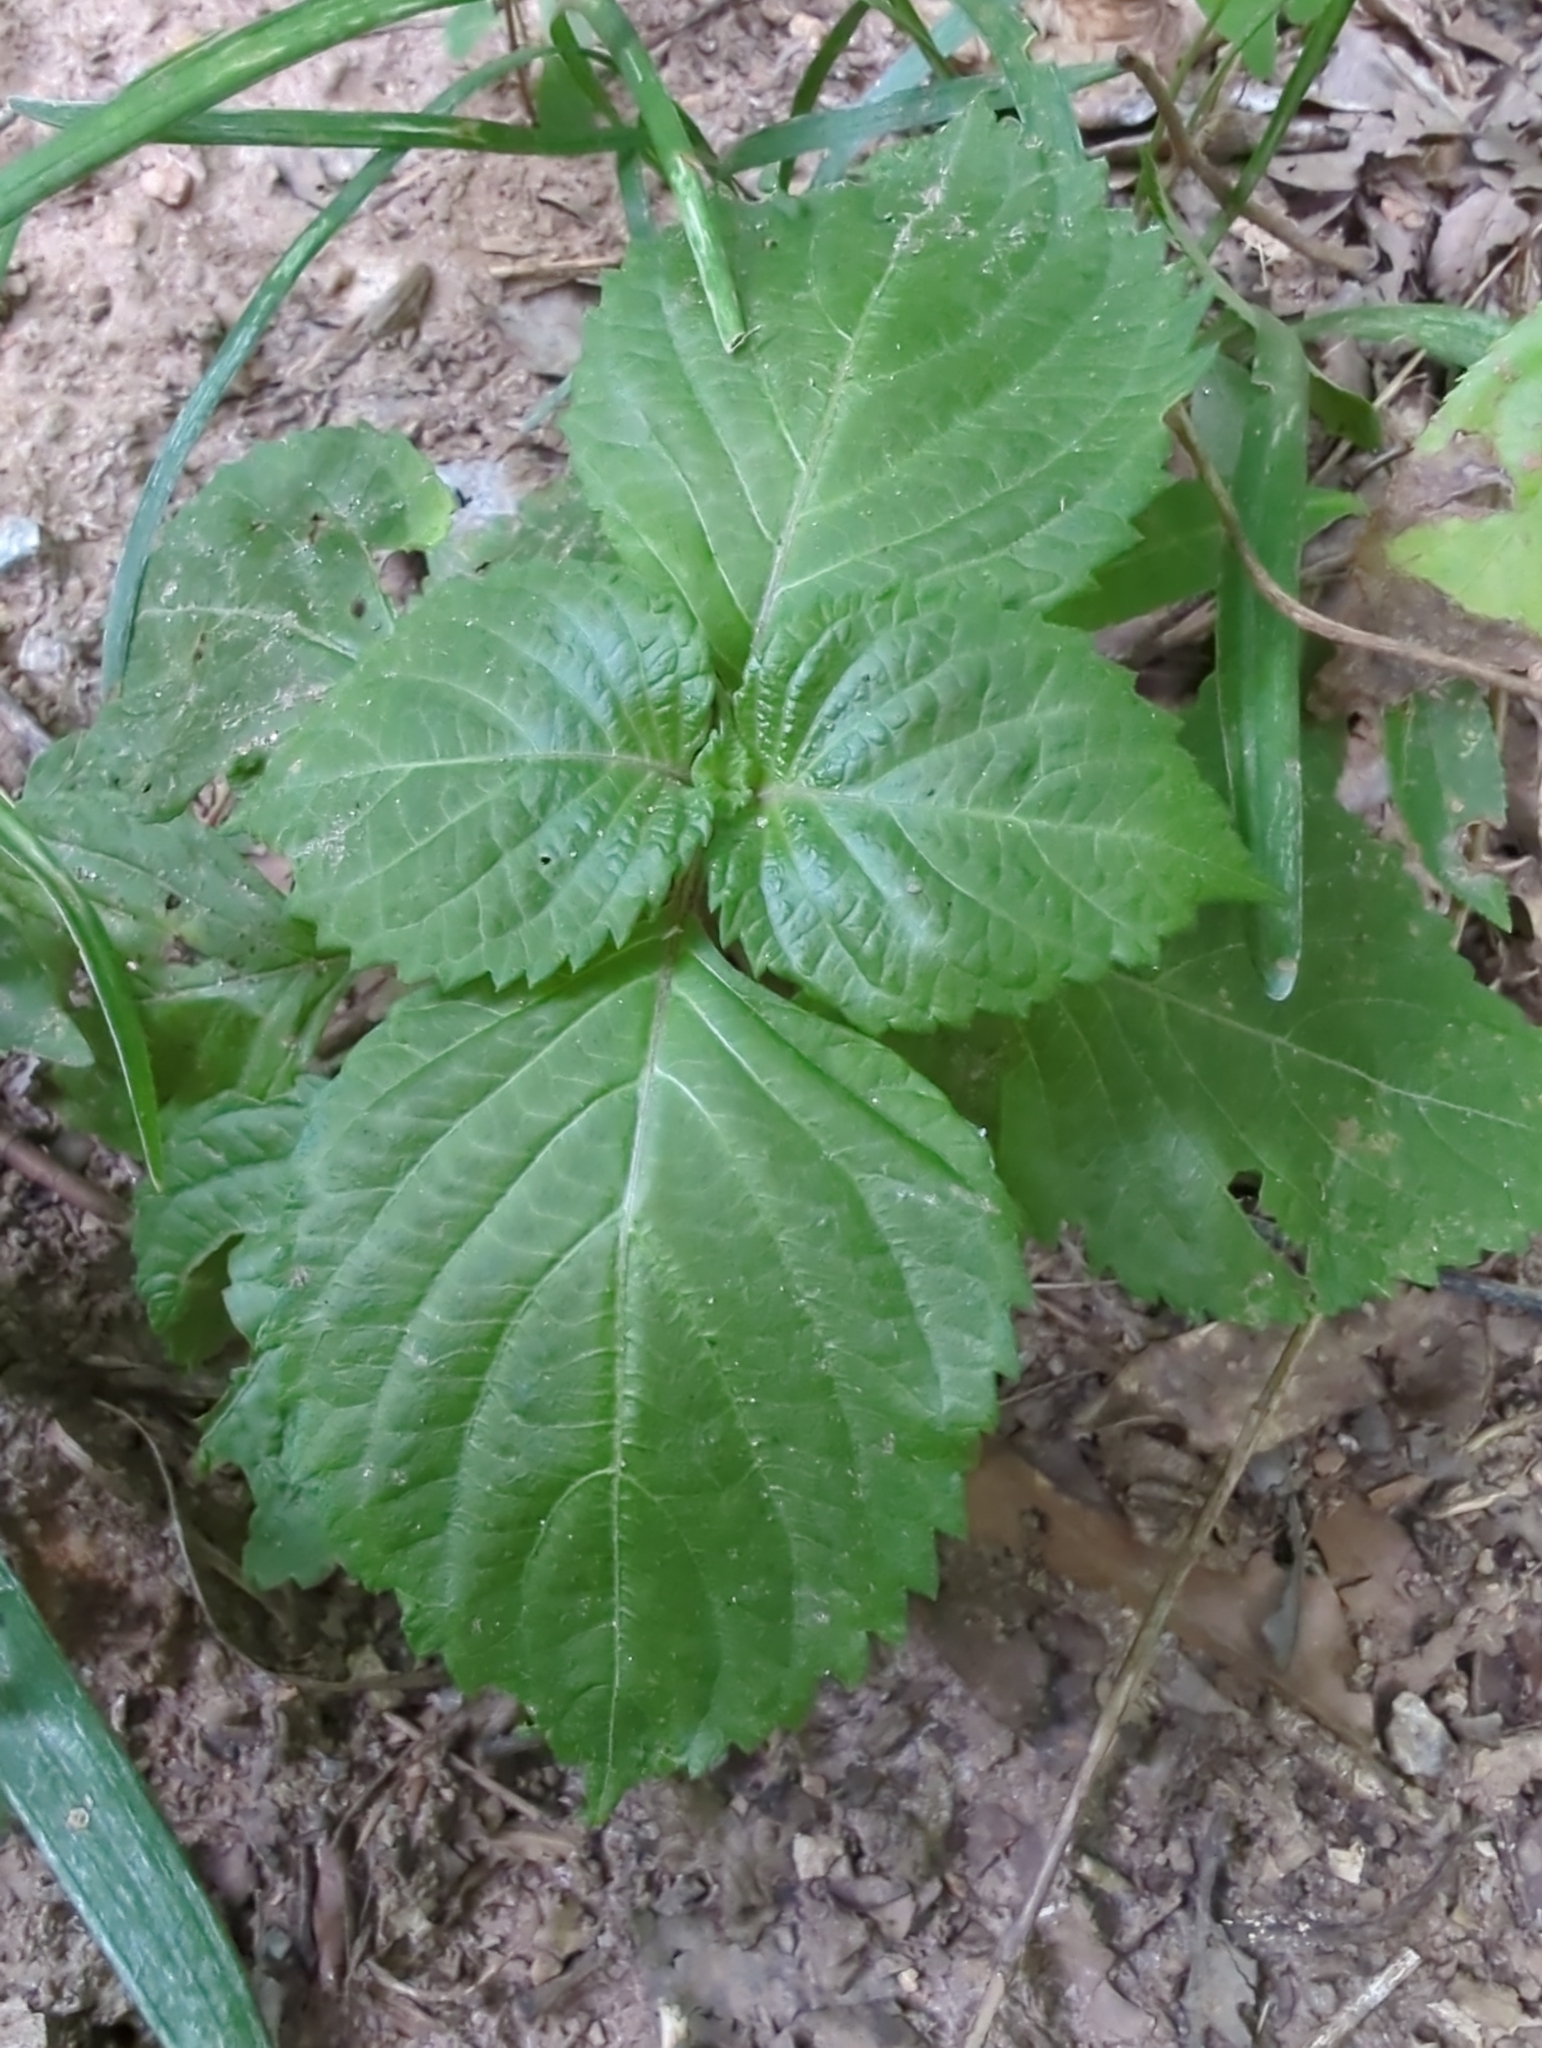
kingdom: Plantae
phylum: Tracheophyta
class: Magnoliopsida
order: Lamiales
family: Lamiaceae
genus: Perilla
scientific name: Perilla frutescens
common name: Perilla
